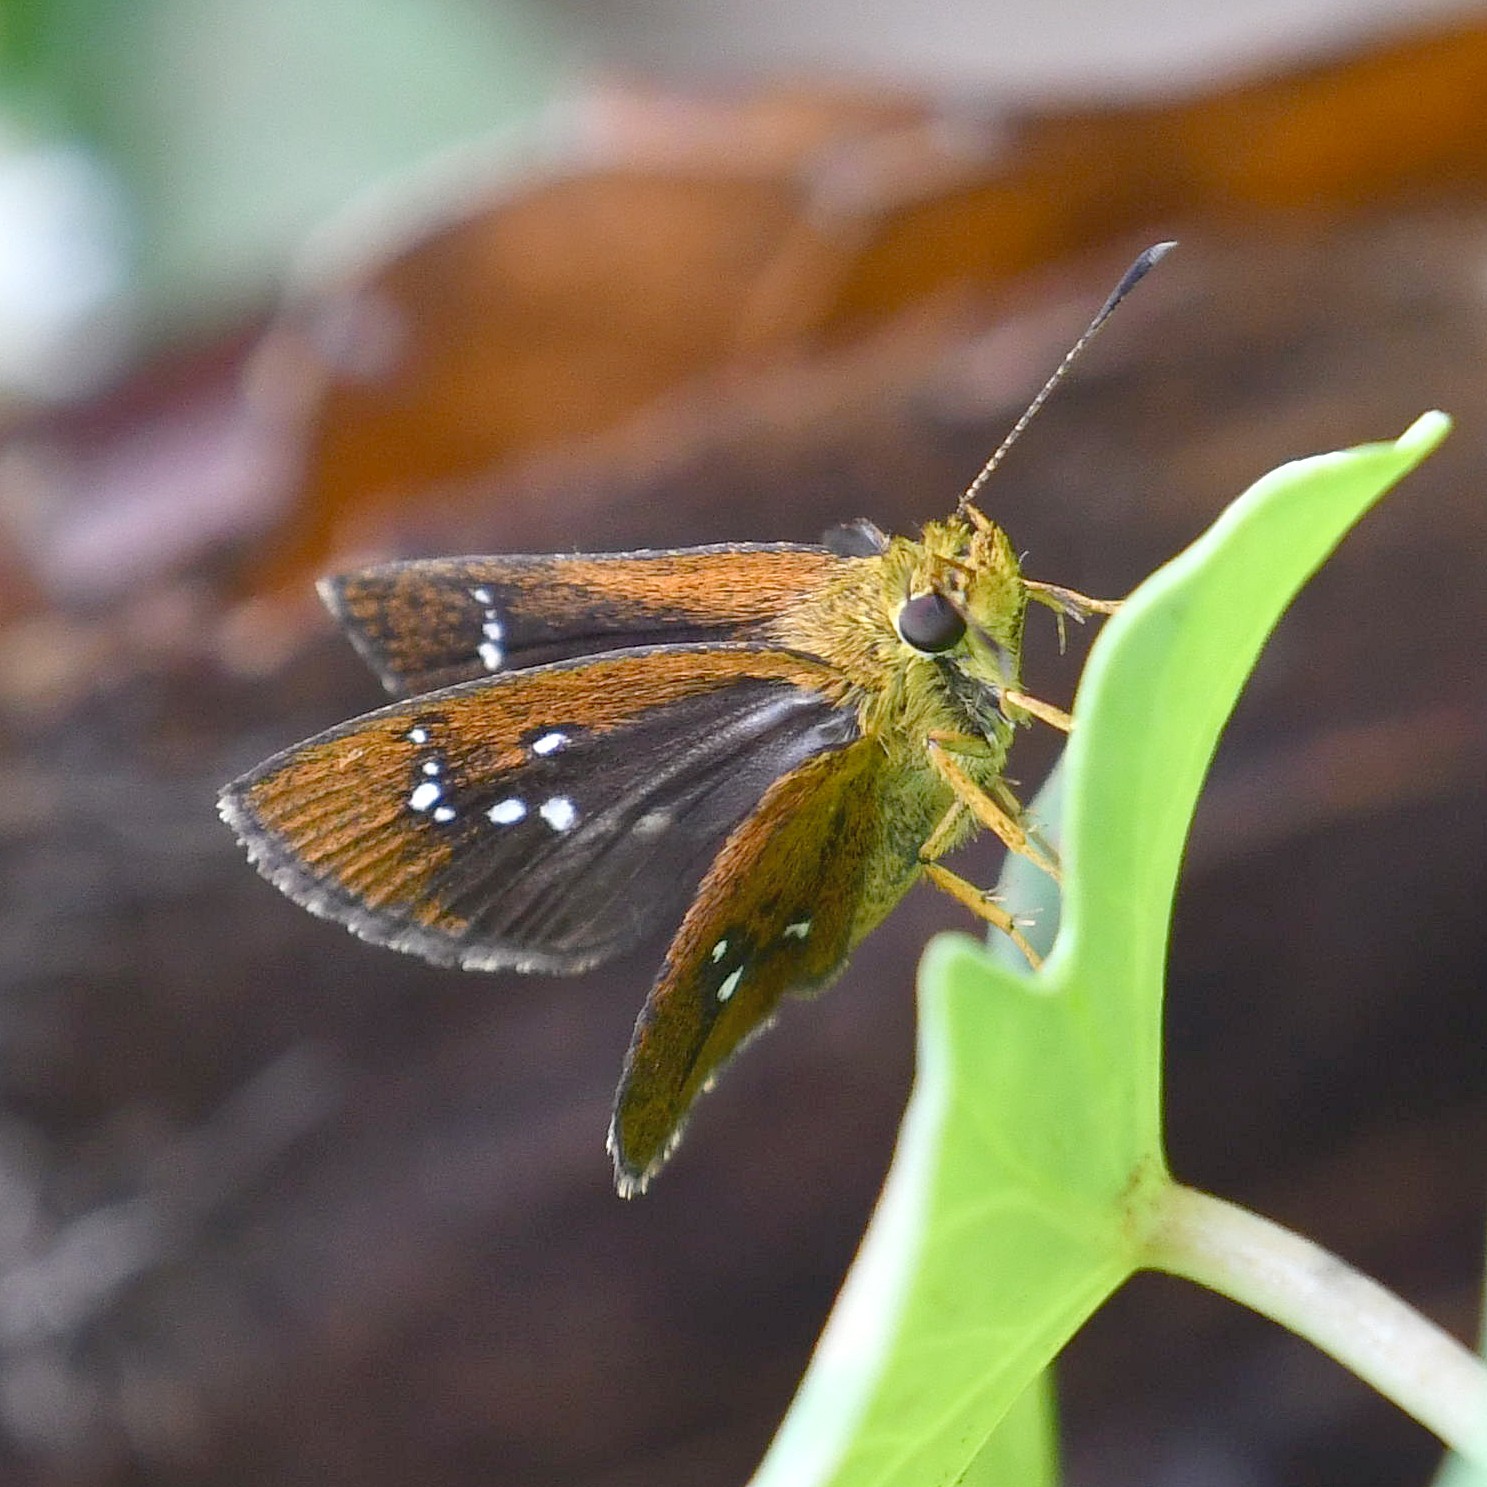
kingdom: Animalia
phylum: Arthropoda
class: Insecta
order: Lepidoptera
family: Hesperiidae
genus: Iambrix
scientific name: Iambrix salsala
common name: Chestnut bob
